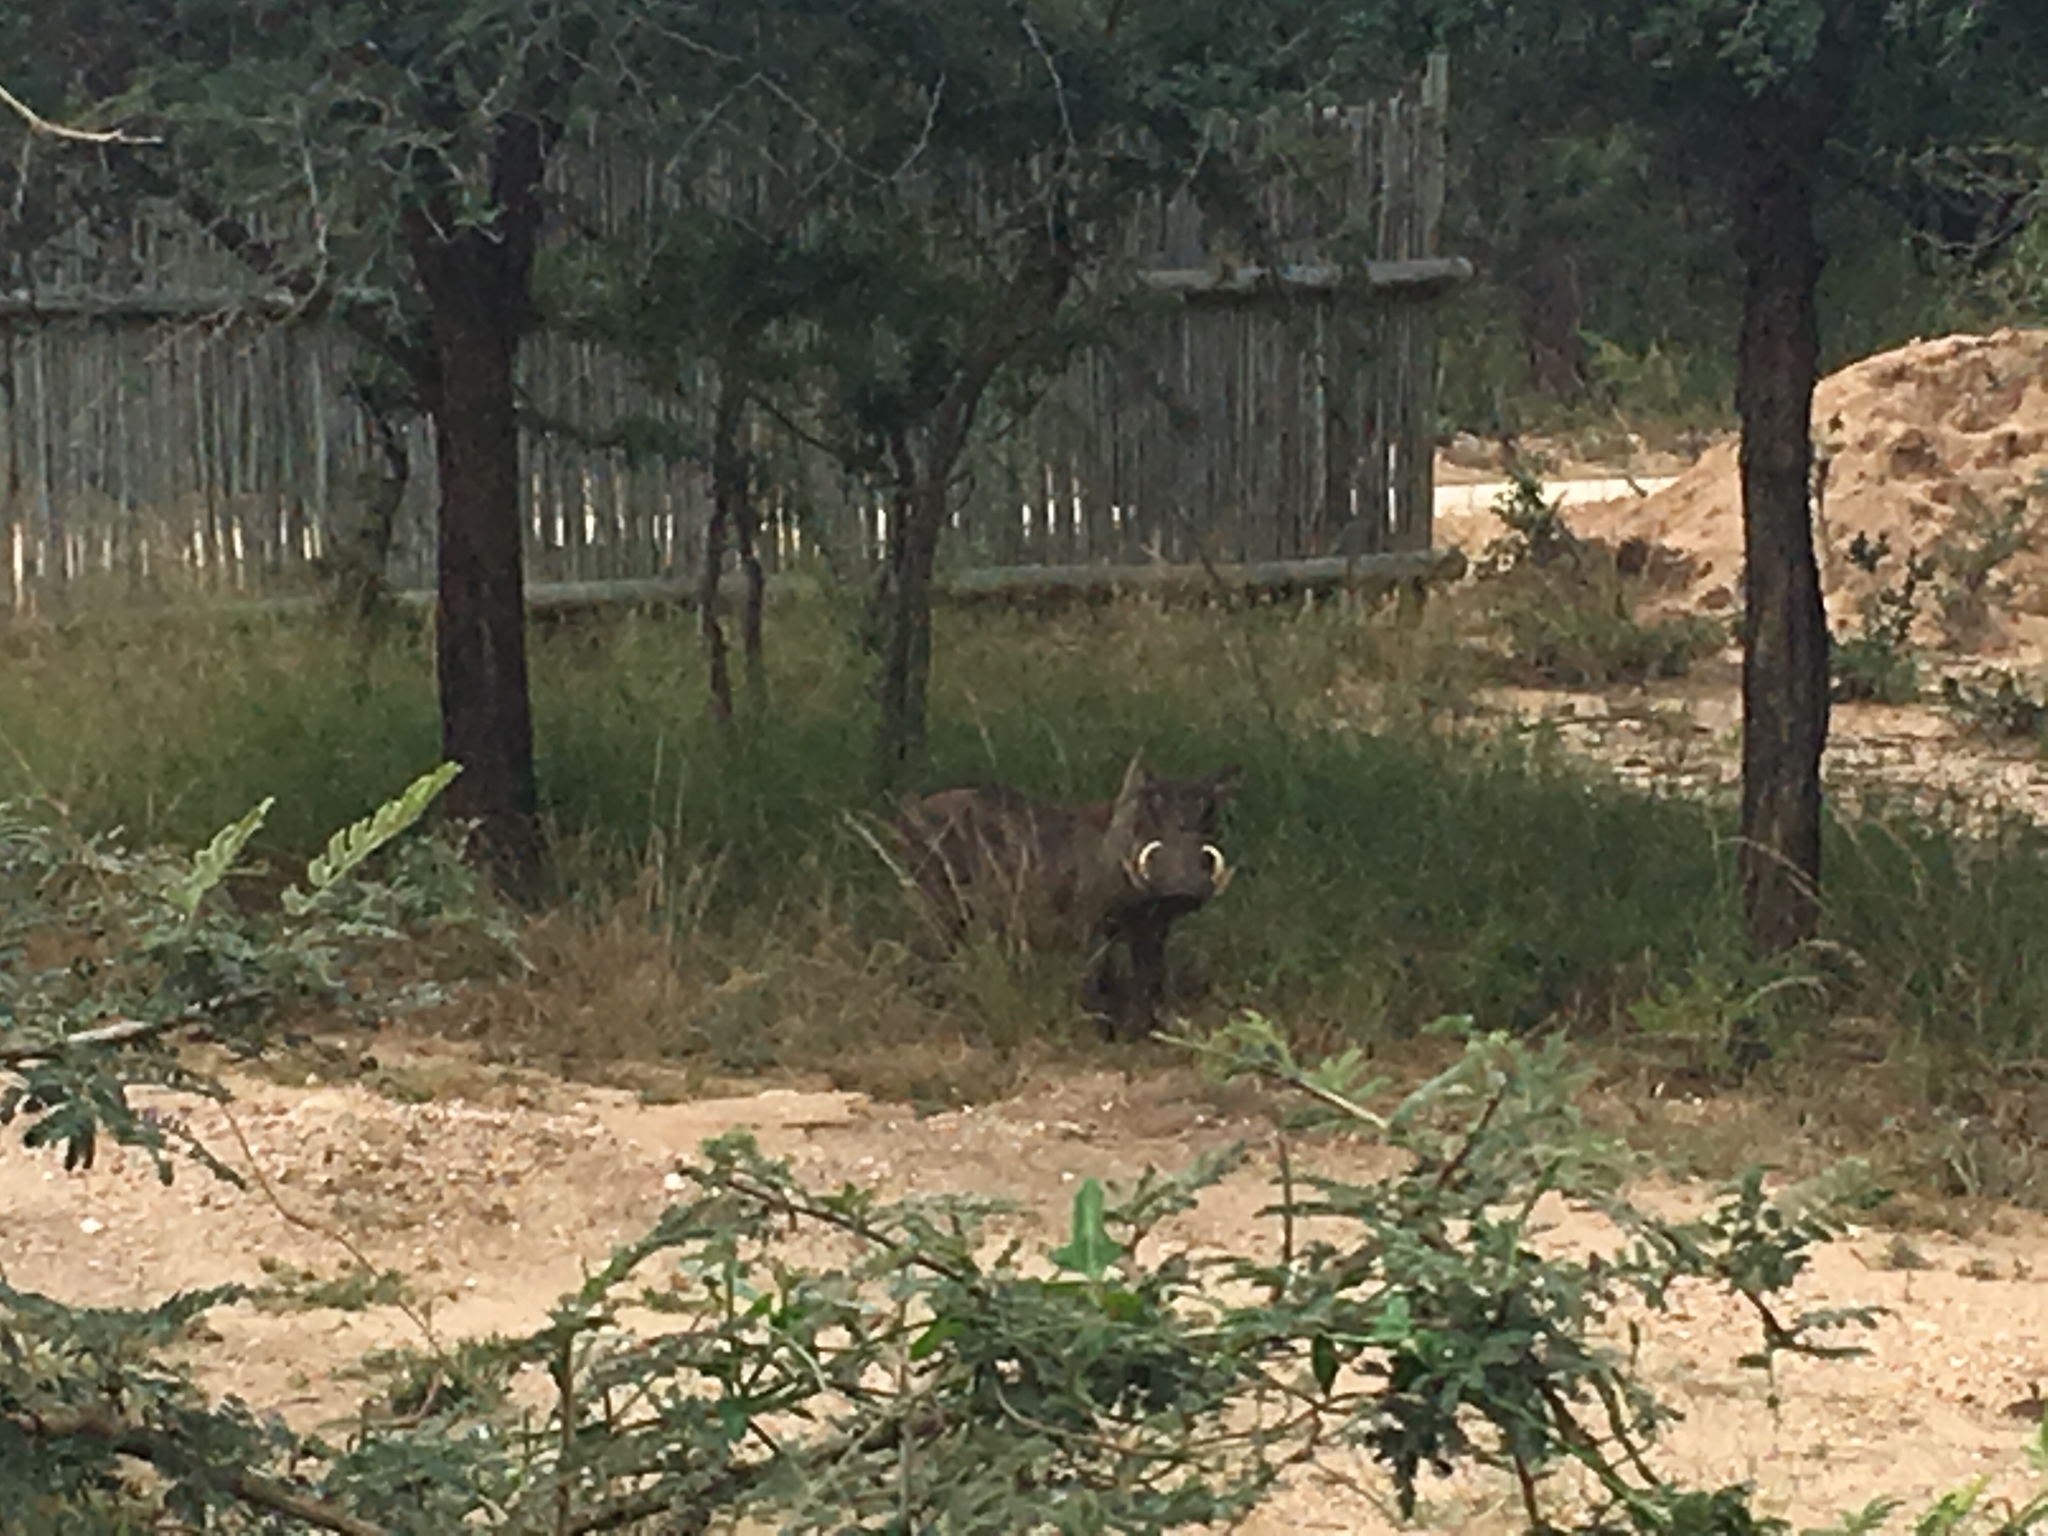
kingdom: Animalia
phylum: Chordata
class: Mammalia
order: Artiodactyla
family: Suidae
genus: Phacochoerus
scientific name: Phacochoerus africanus
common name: Common warthog
